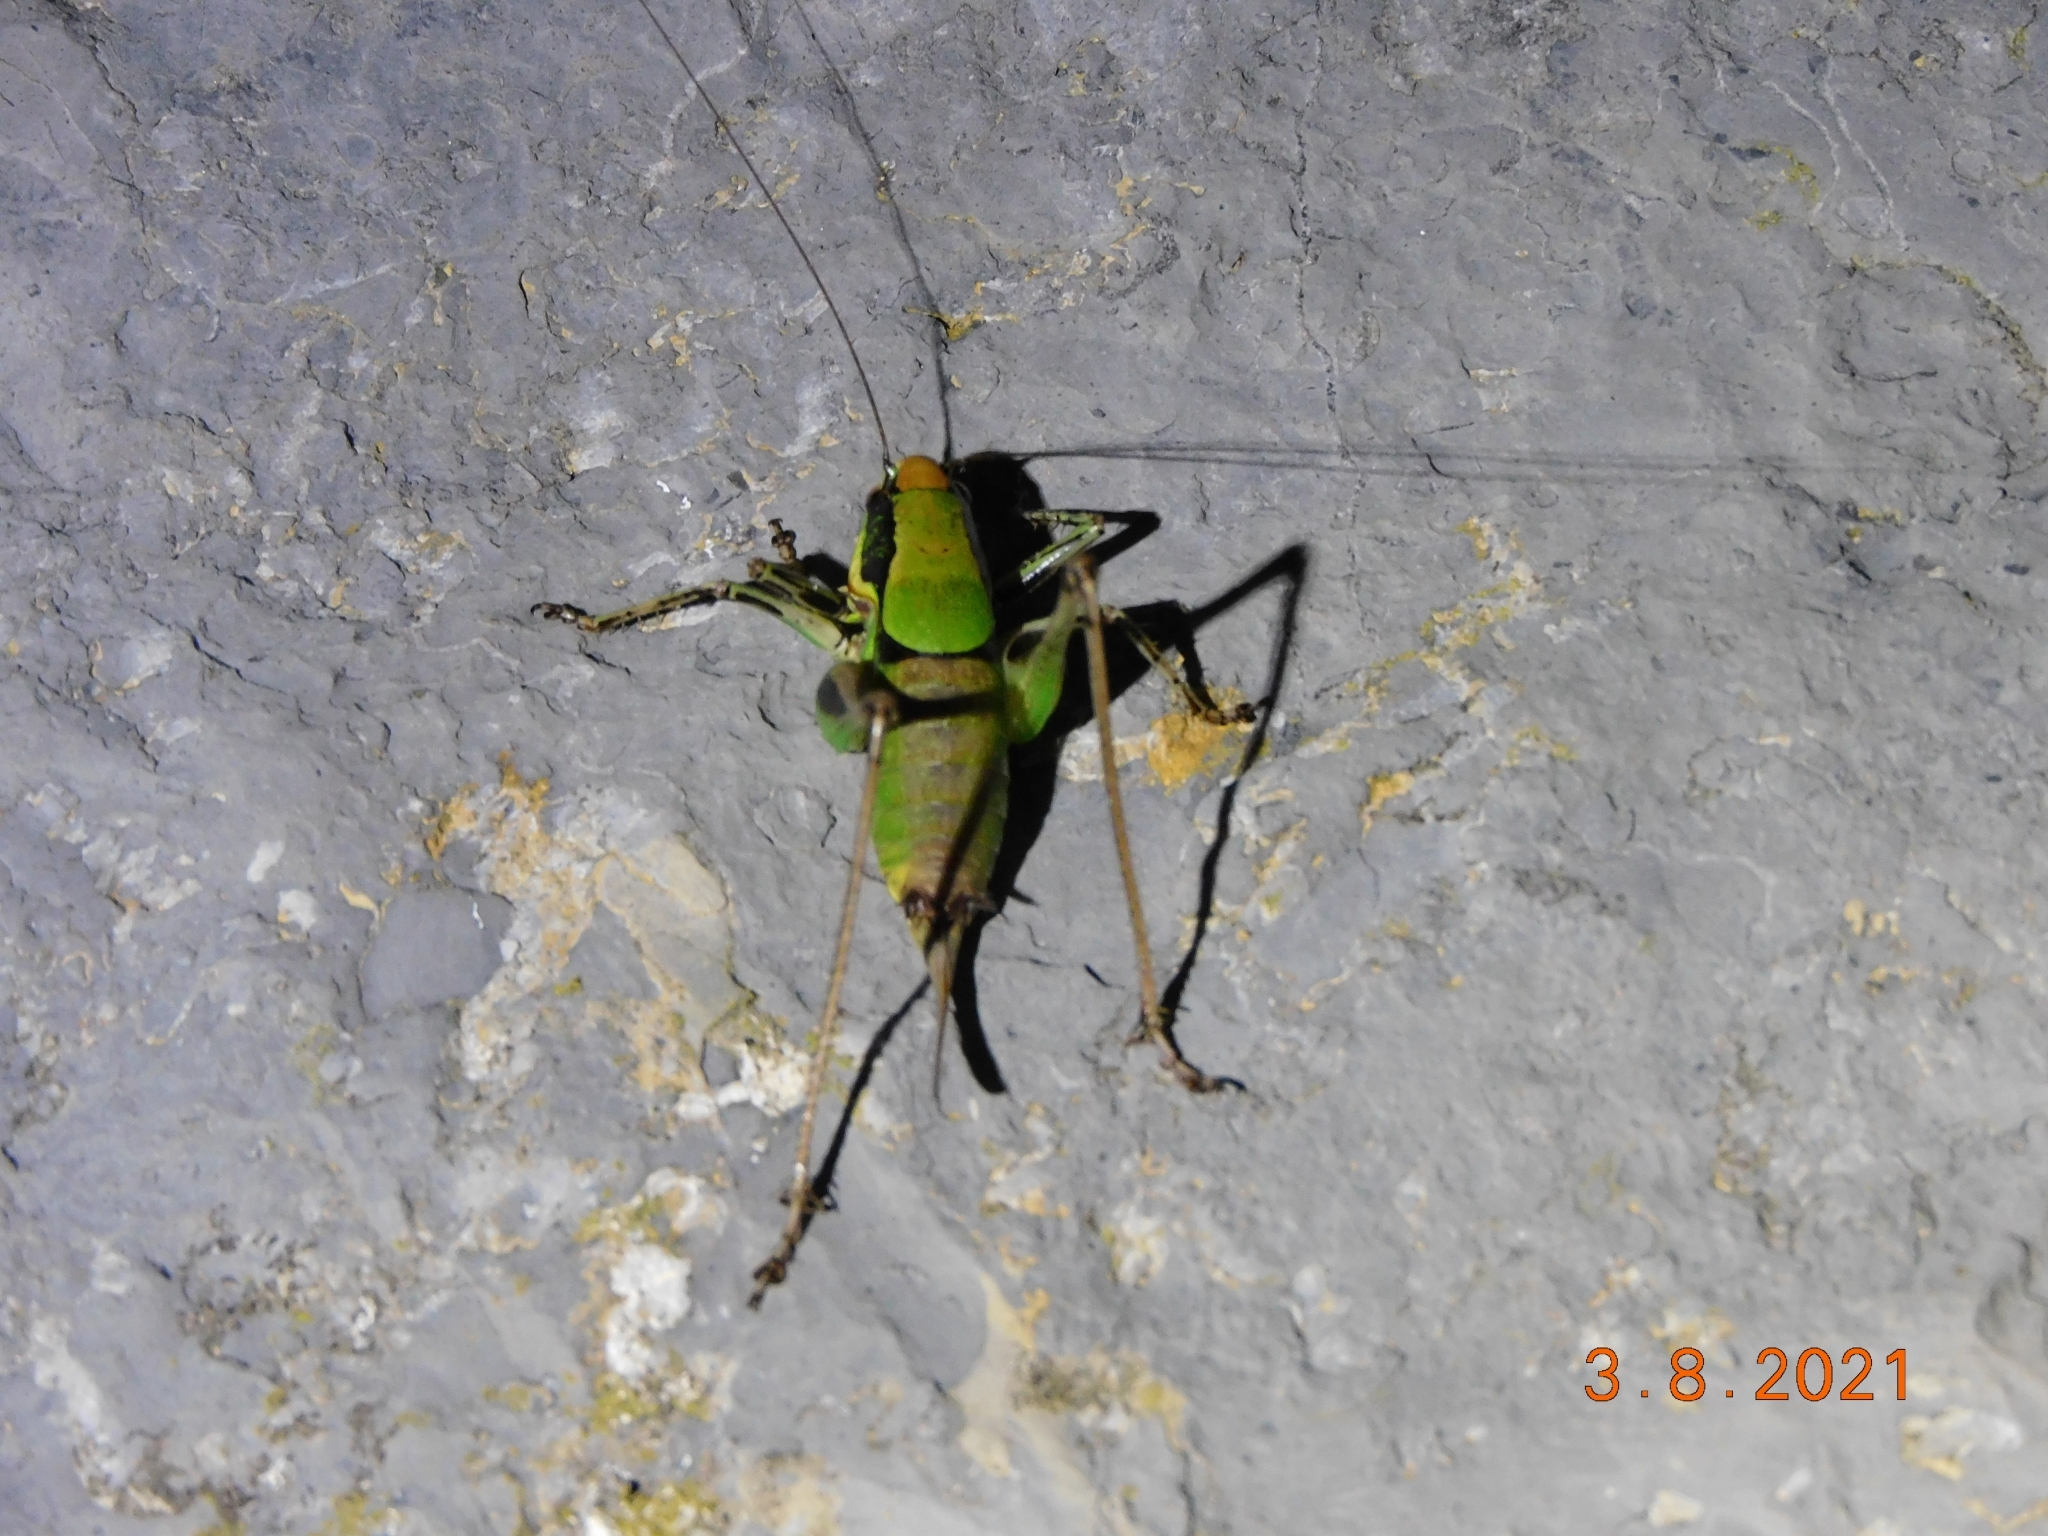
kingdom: Animalia
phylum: Arthropoda
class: Insecta
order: Orthoptera
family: Tettigoniidae
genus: Eupholidoptera
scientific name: Eupholidoptera chabrieri
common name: Chabrier's marbled bush-cricket
